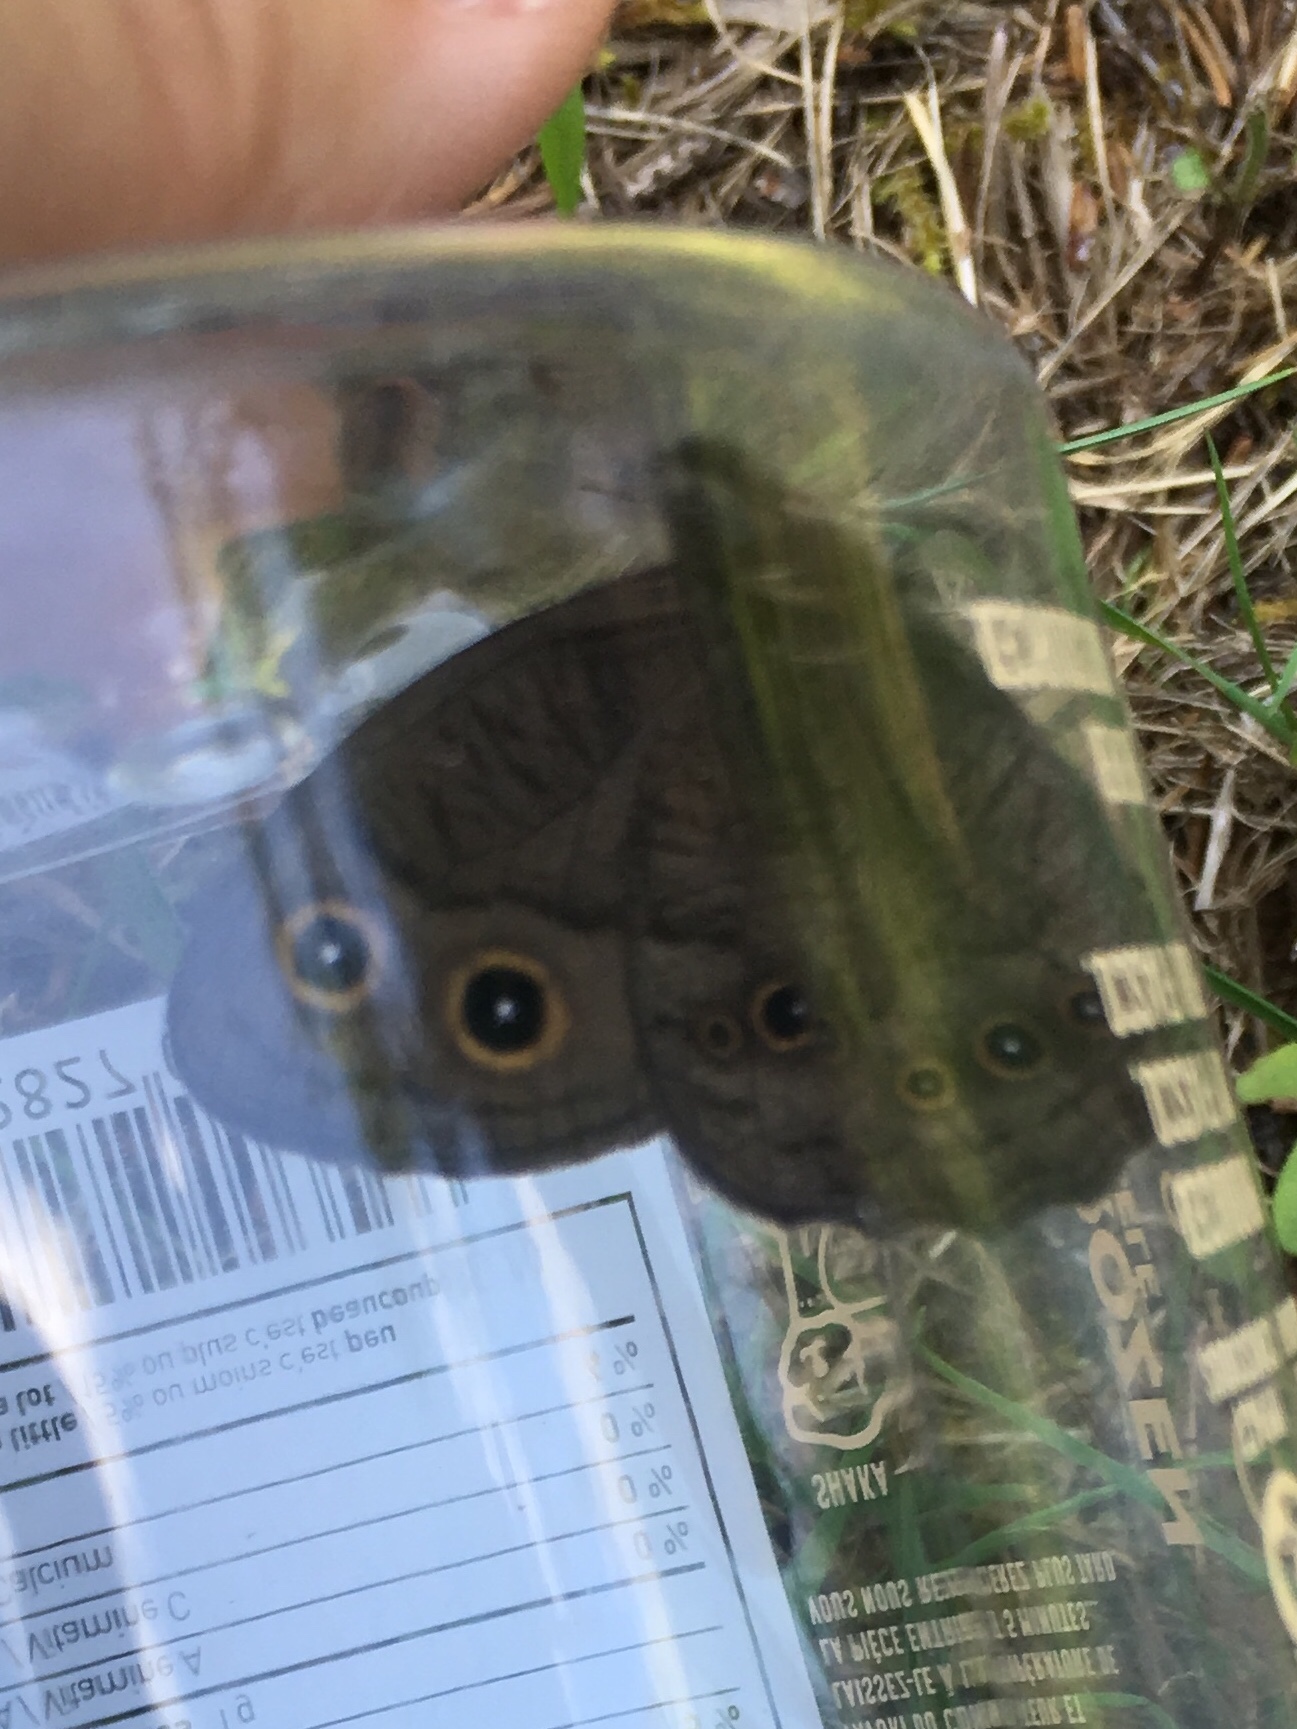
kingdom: Animalia
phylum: Arthropoda
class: Insecta
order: Lepidoptera
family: Nymphalidae
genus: Cercyonis
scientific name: Cercyonis pegala
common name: Common wood-nymph
